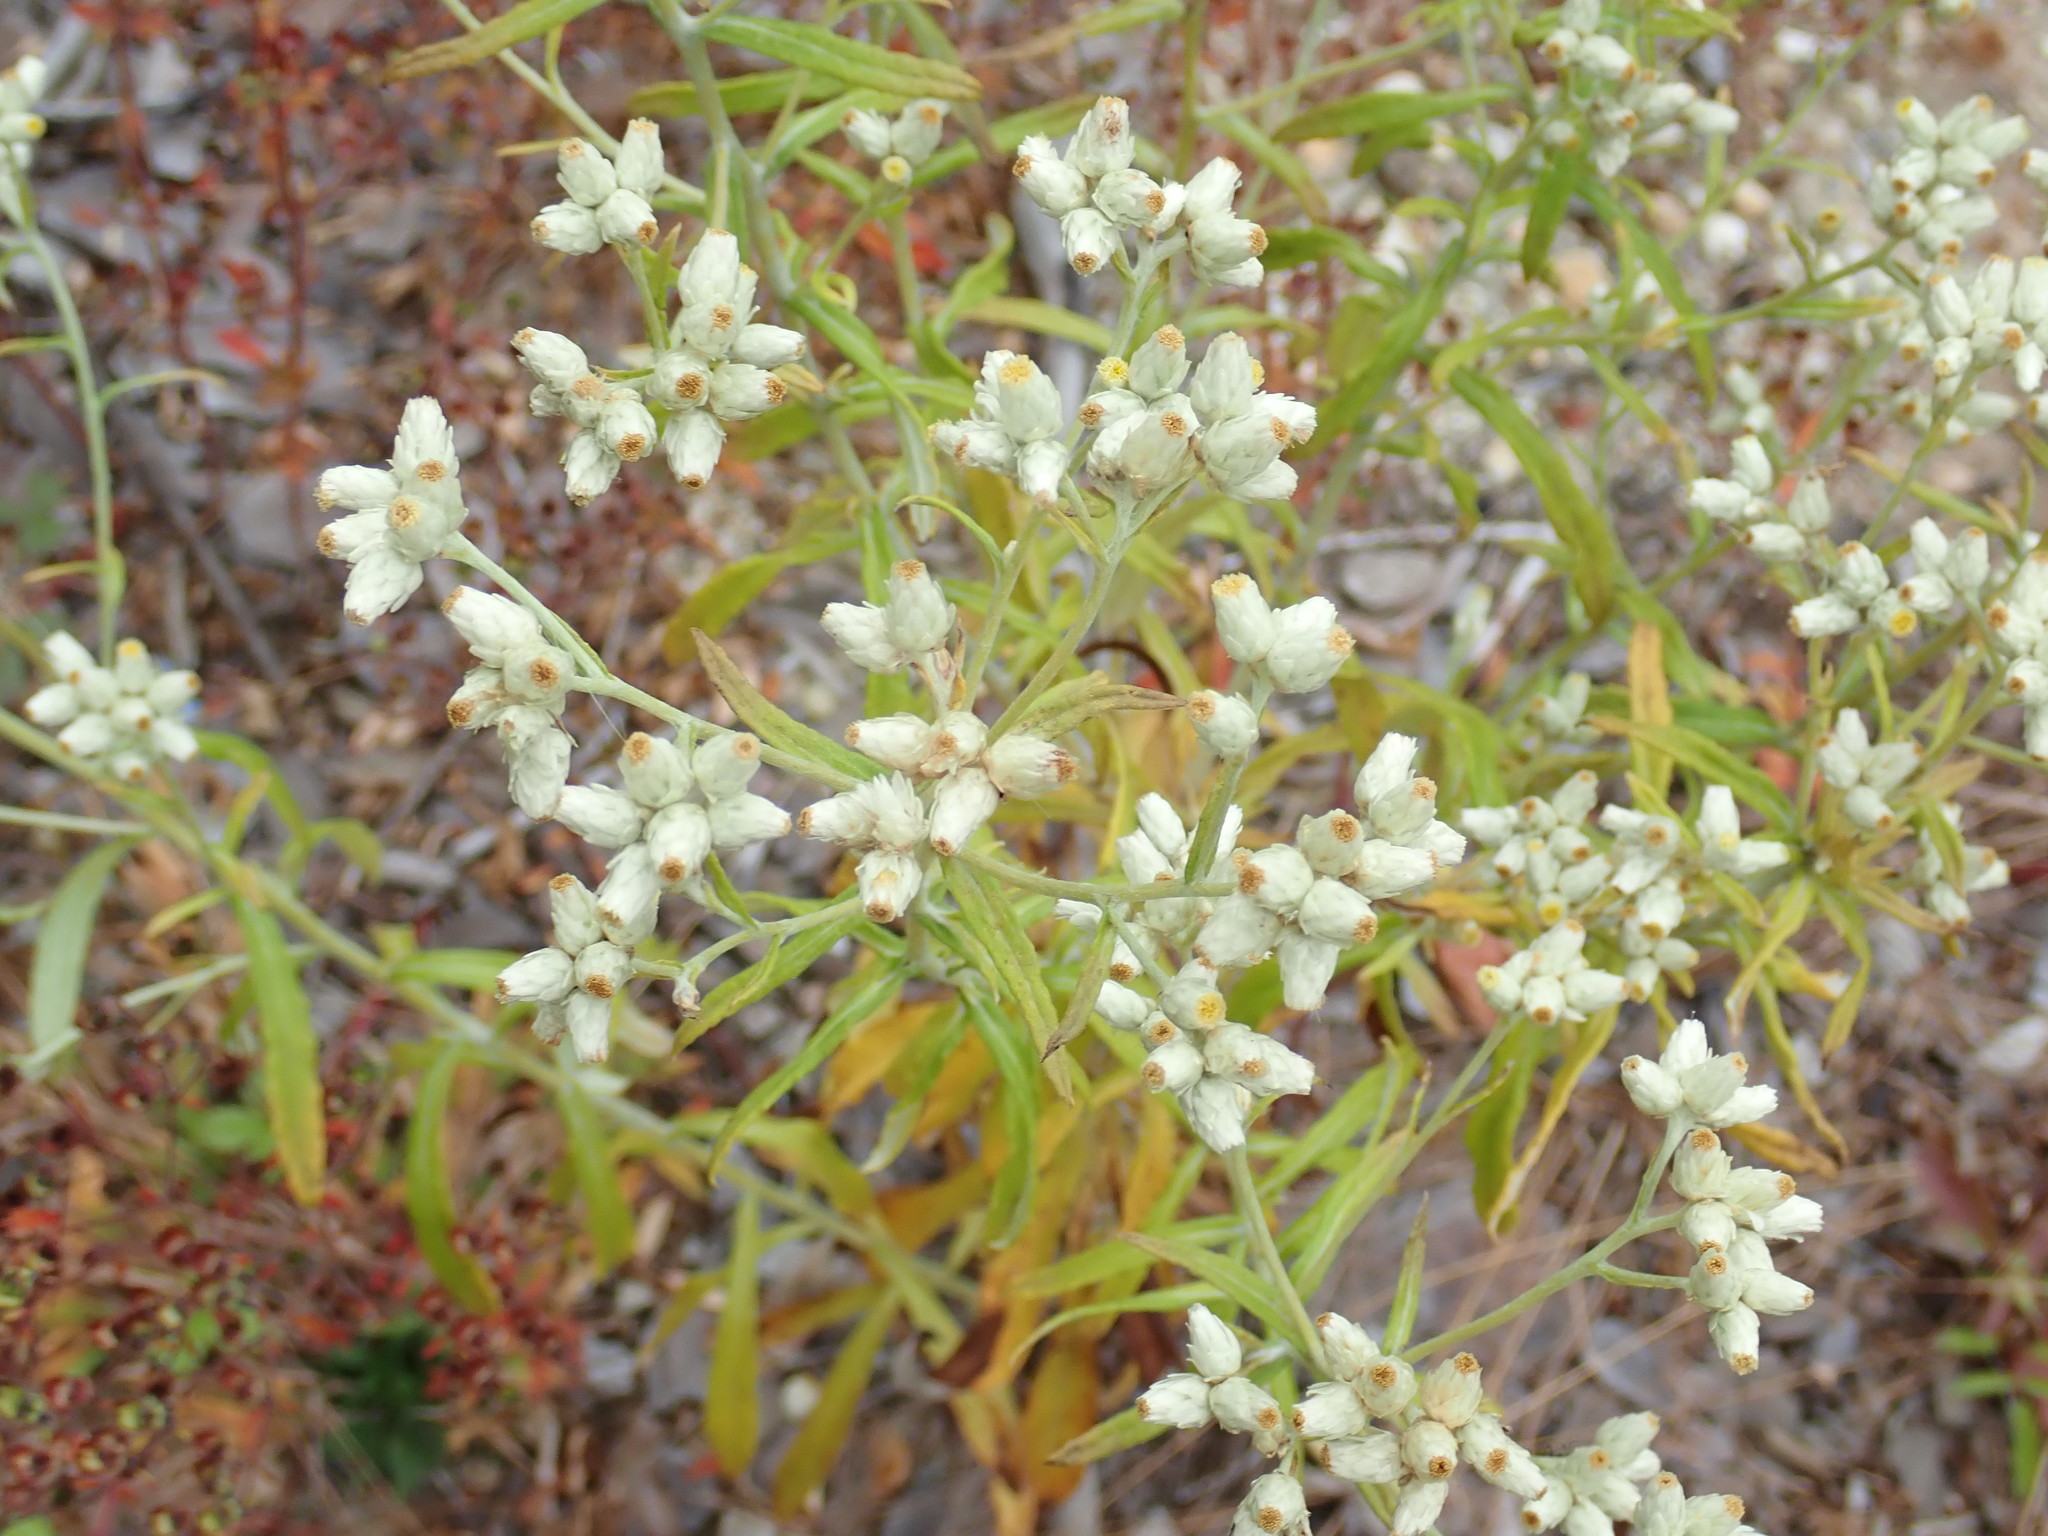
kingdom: Plantae
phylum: Tracheophyta
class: Magnoliopsida
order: Asterales
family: Asteraceae
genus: Pseudognaphalium
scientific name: Pseudognaphalium obtusifolium
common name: Eastern rabbit-tobacco
